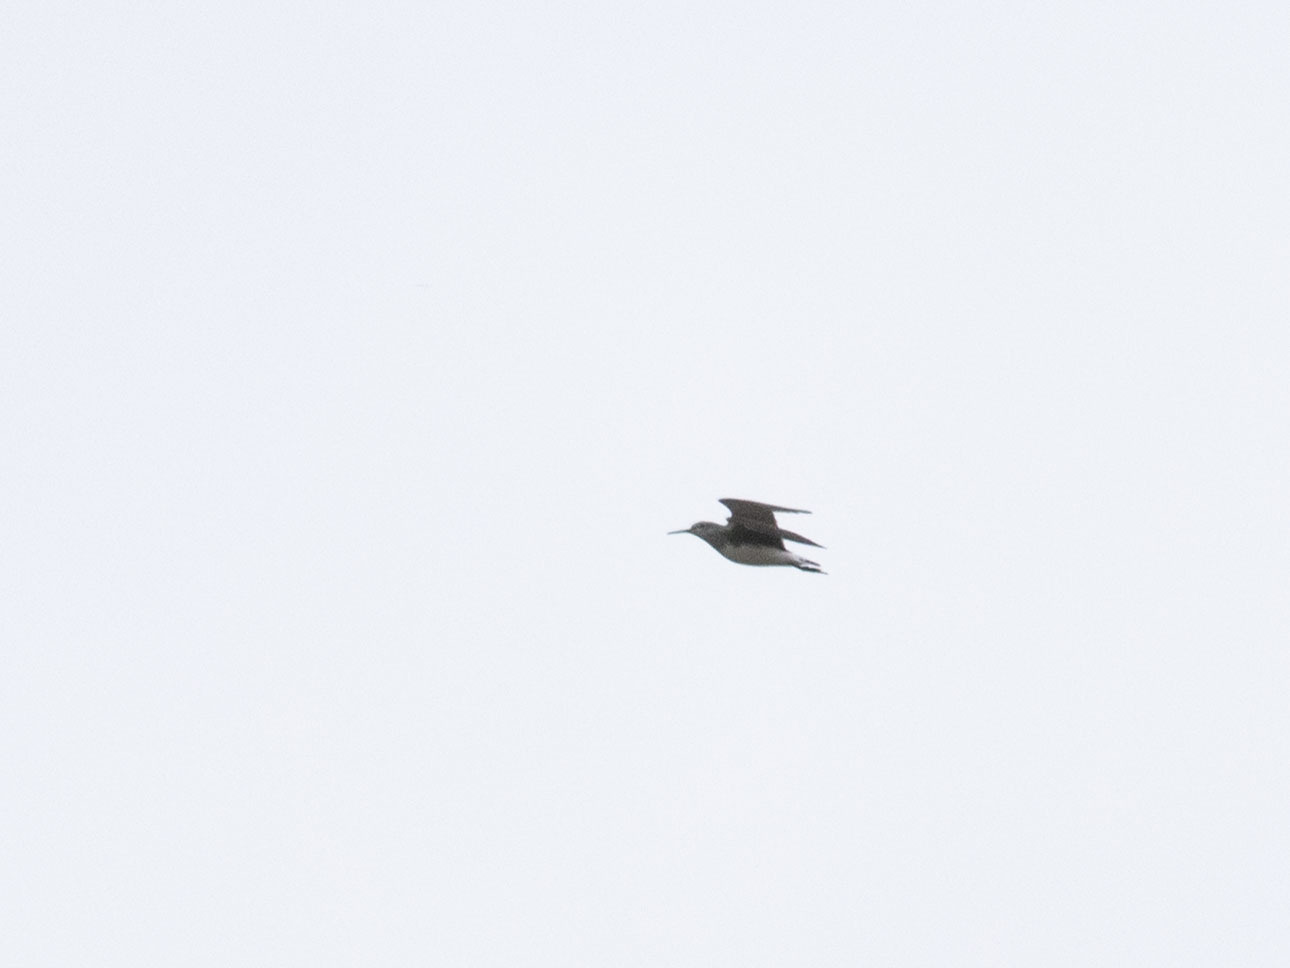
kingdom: Animalia
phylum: Chordata
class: Aves
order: Charadriiformes
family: Scolopacidae
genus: Tringa
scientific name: Tringa ochropus
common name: Green sandpiper
